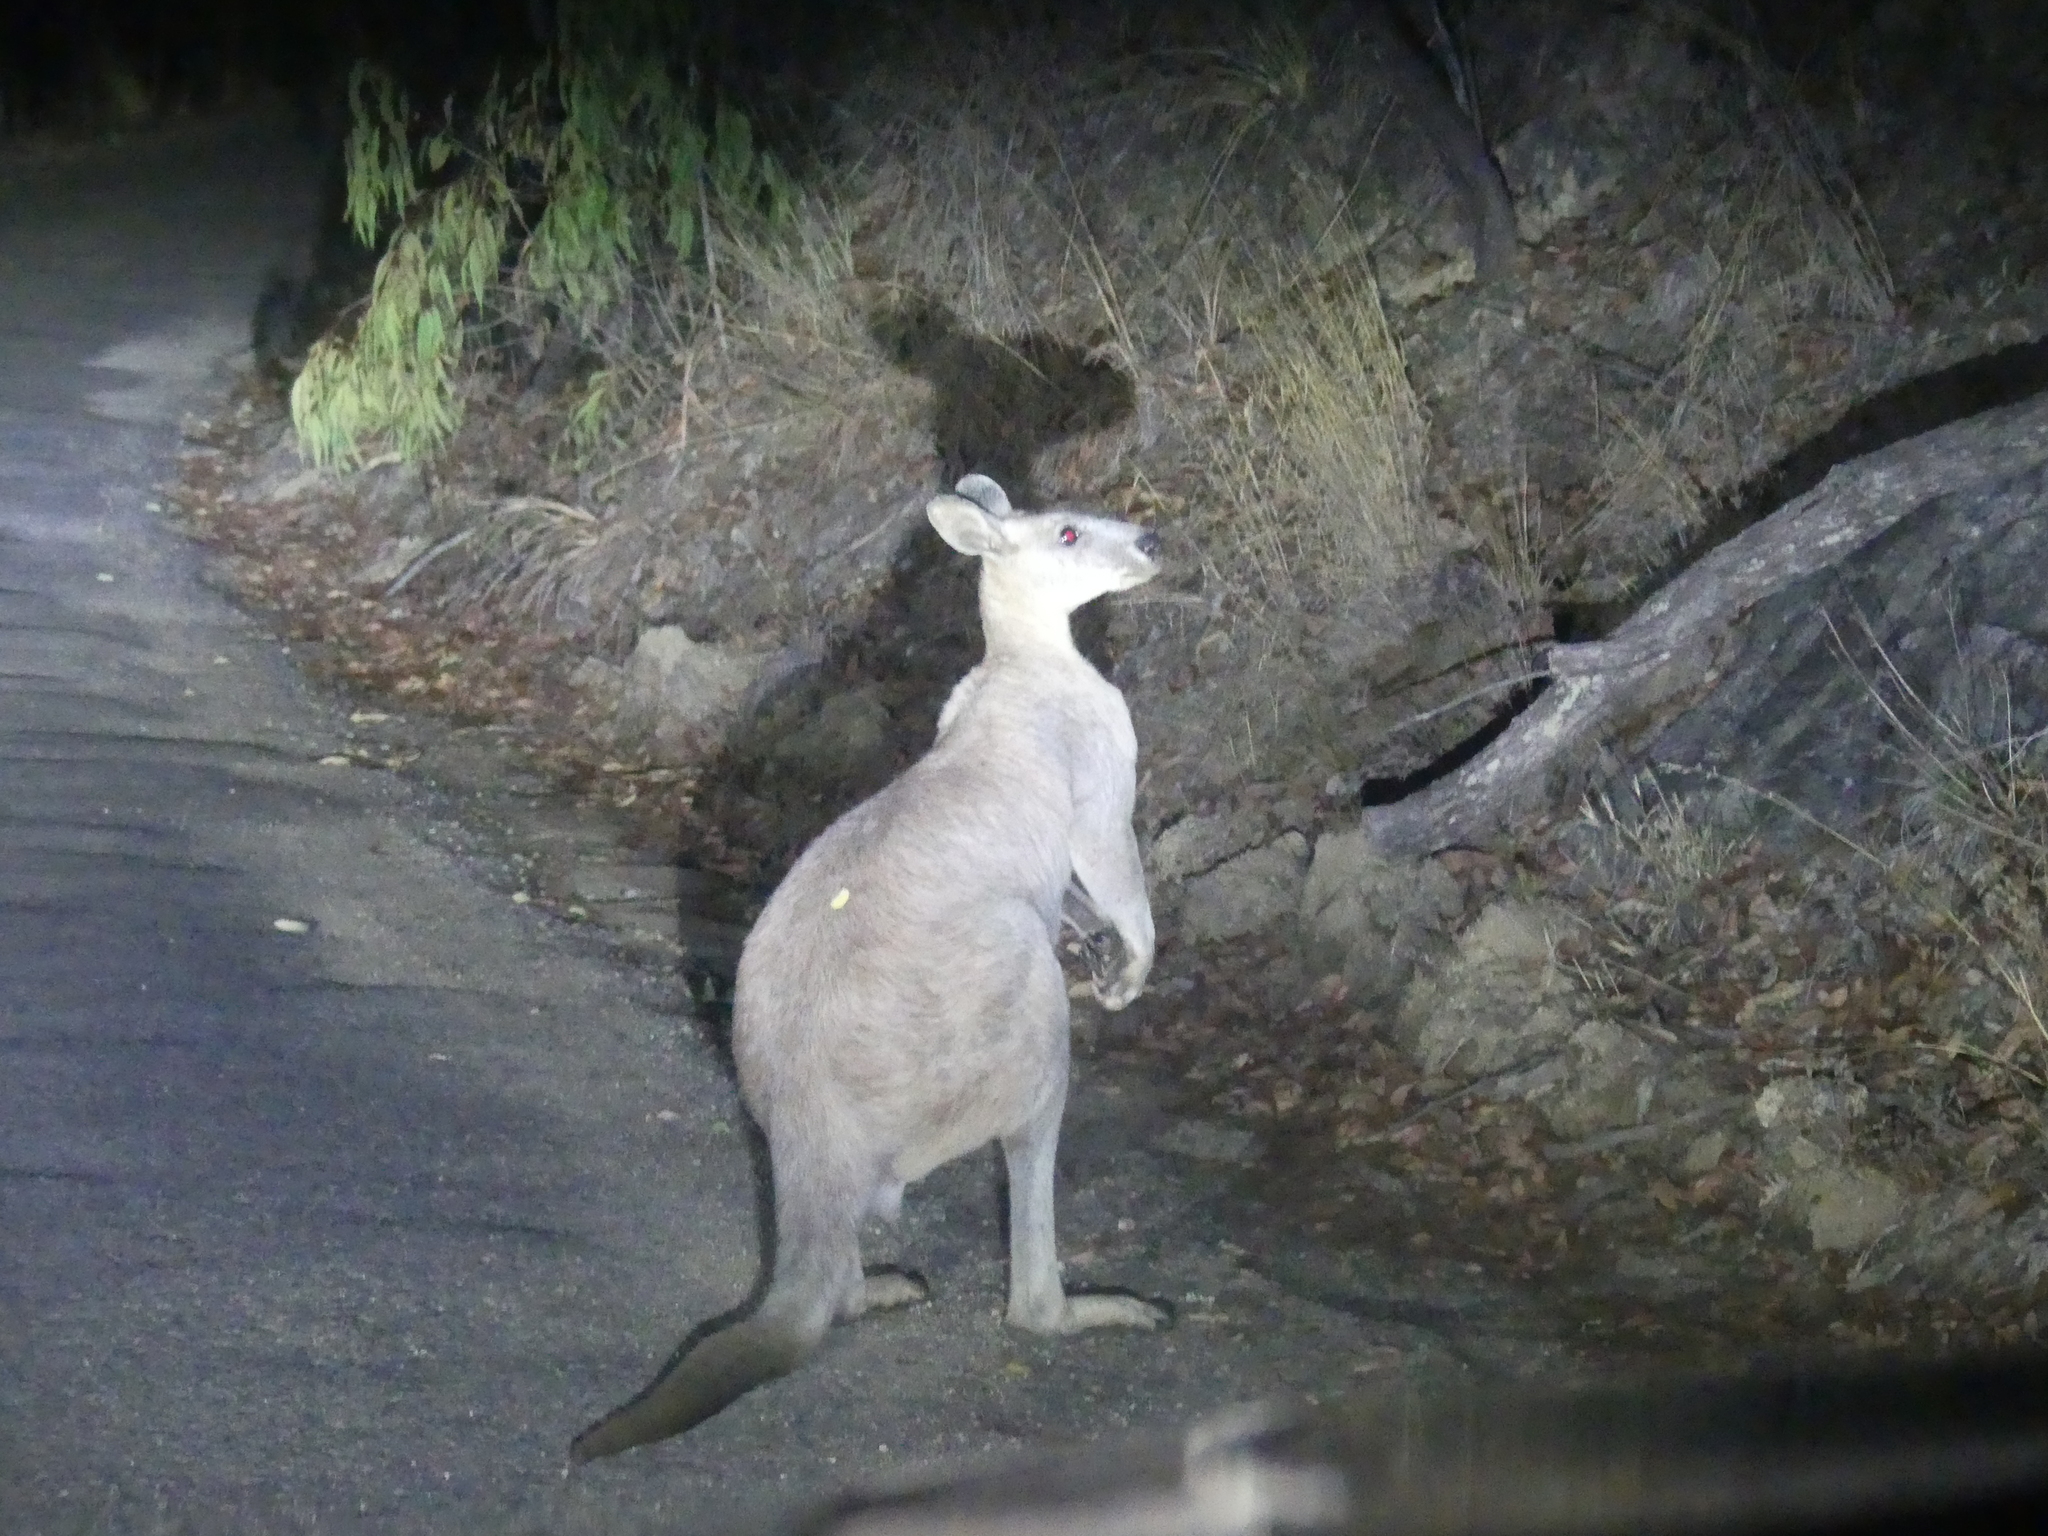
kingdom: Animalia
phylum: Chordata
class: Mammalia
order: Diprotodontia
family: Macropodidae
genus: Macropus
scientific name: Macropus robustus
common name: Eastern wallaroo
